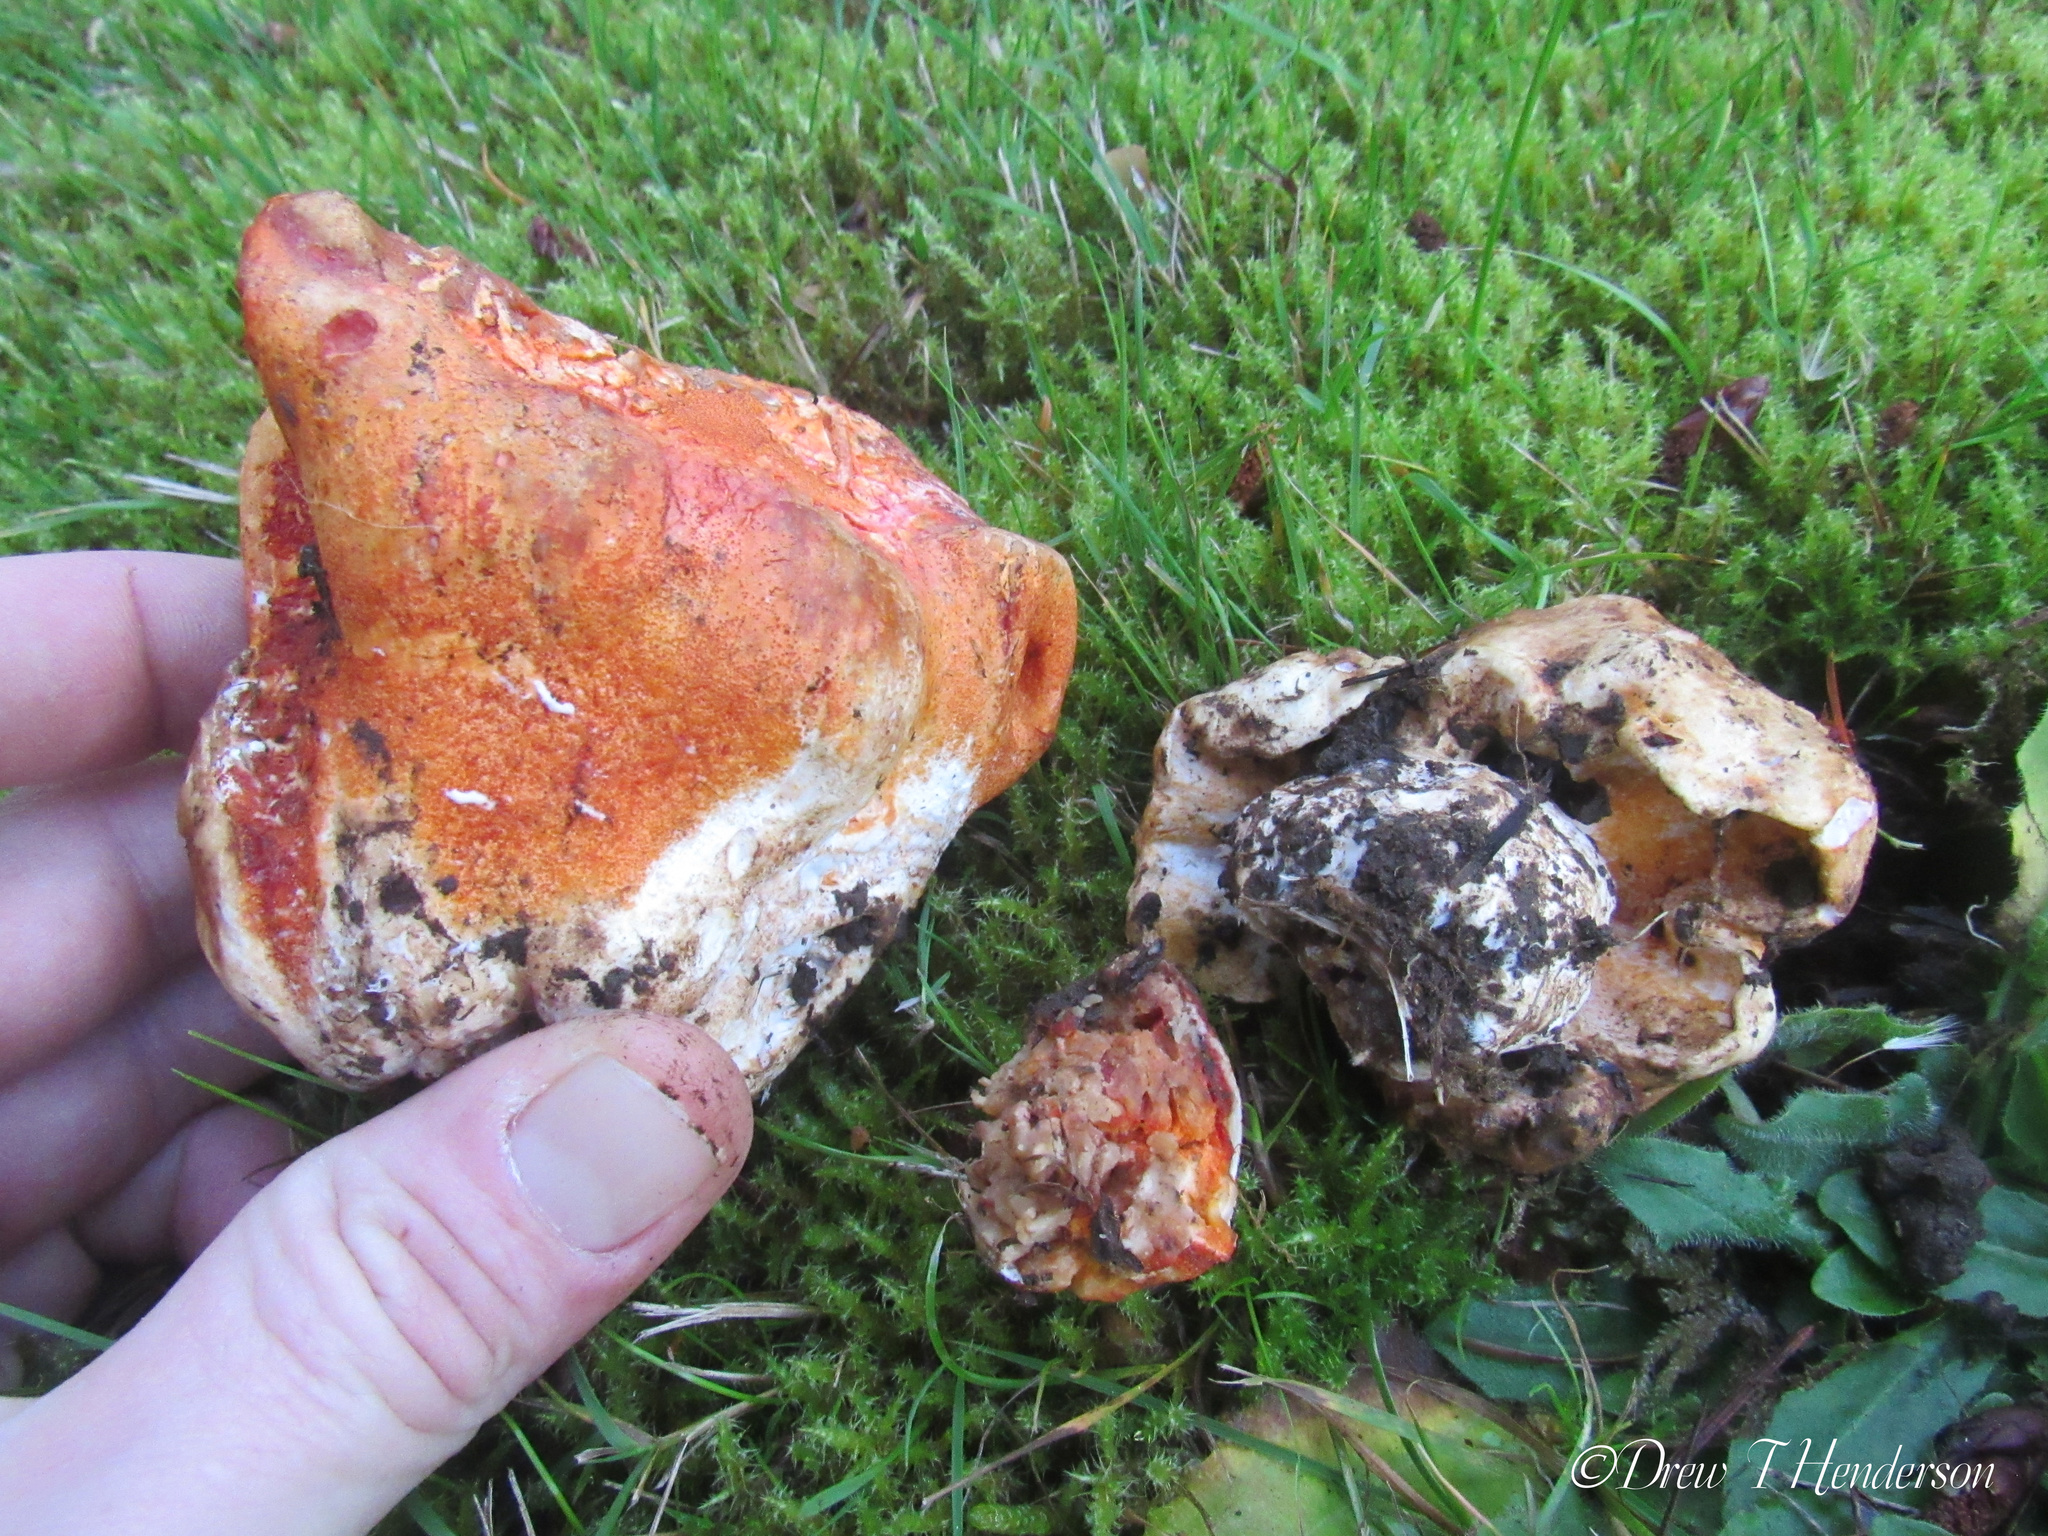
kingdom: Fungi
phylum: Ascomycota
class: Sordariomycetes
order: Hypocreales
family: Hypocreaceae
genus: Hypomyces
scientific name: Hypomyces lactifluorum
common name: Lobster mushroom
